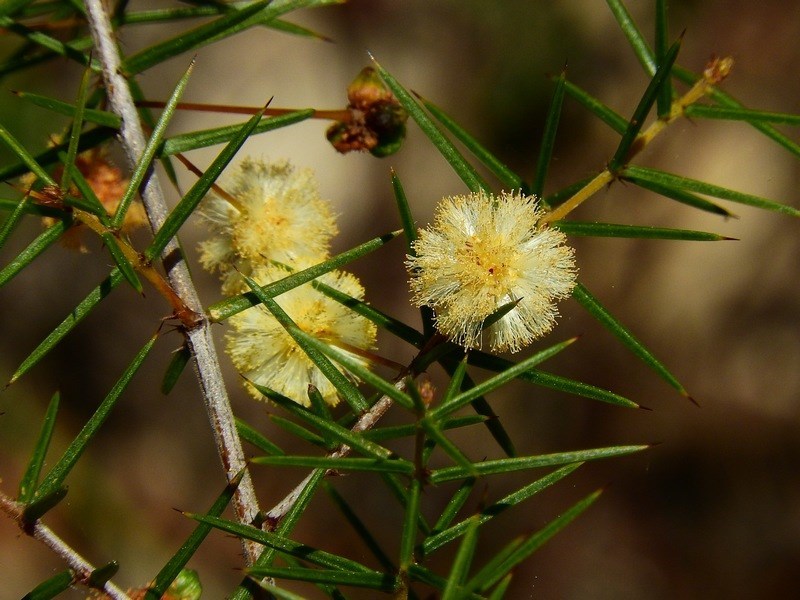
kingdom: Plantae
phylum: Tracheophyta
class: Magnoliopsida
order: Fabales
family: Fabaceae
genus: Acacia
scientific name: Acacia ulicifolia
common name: Juniper wattle
